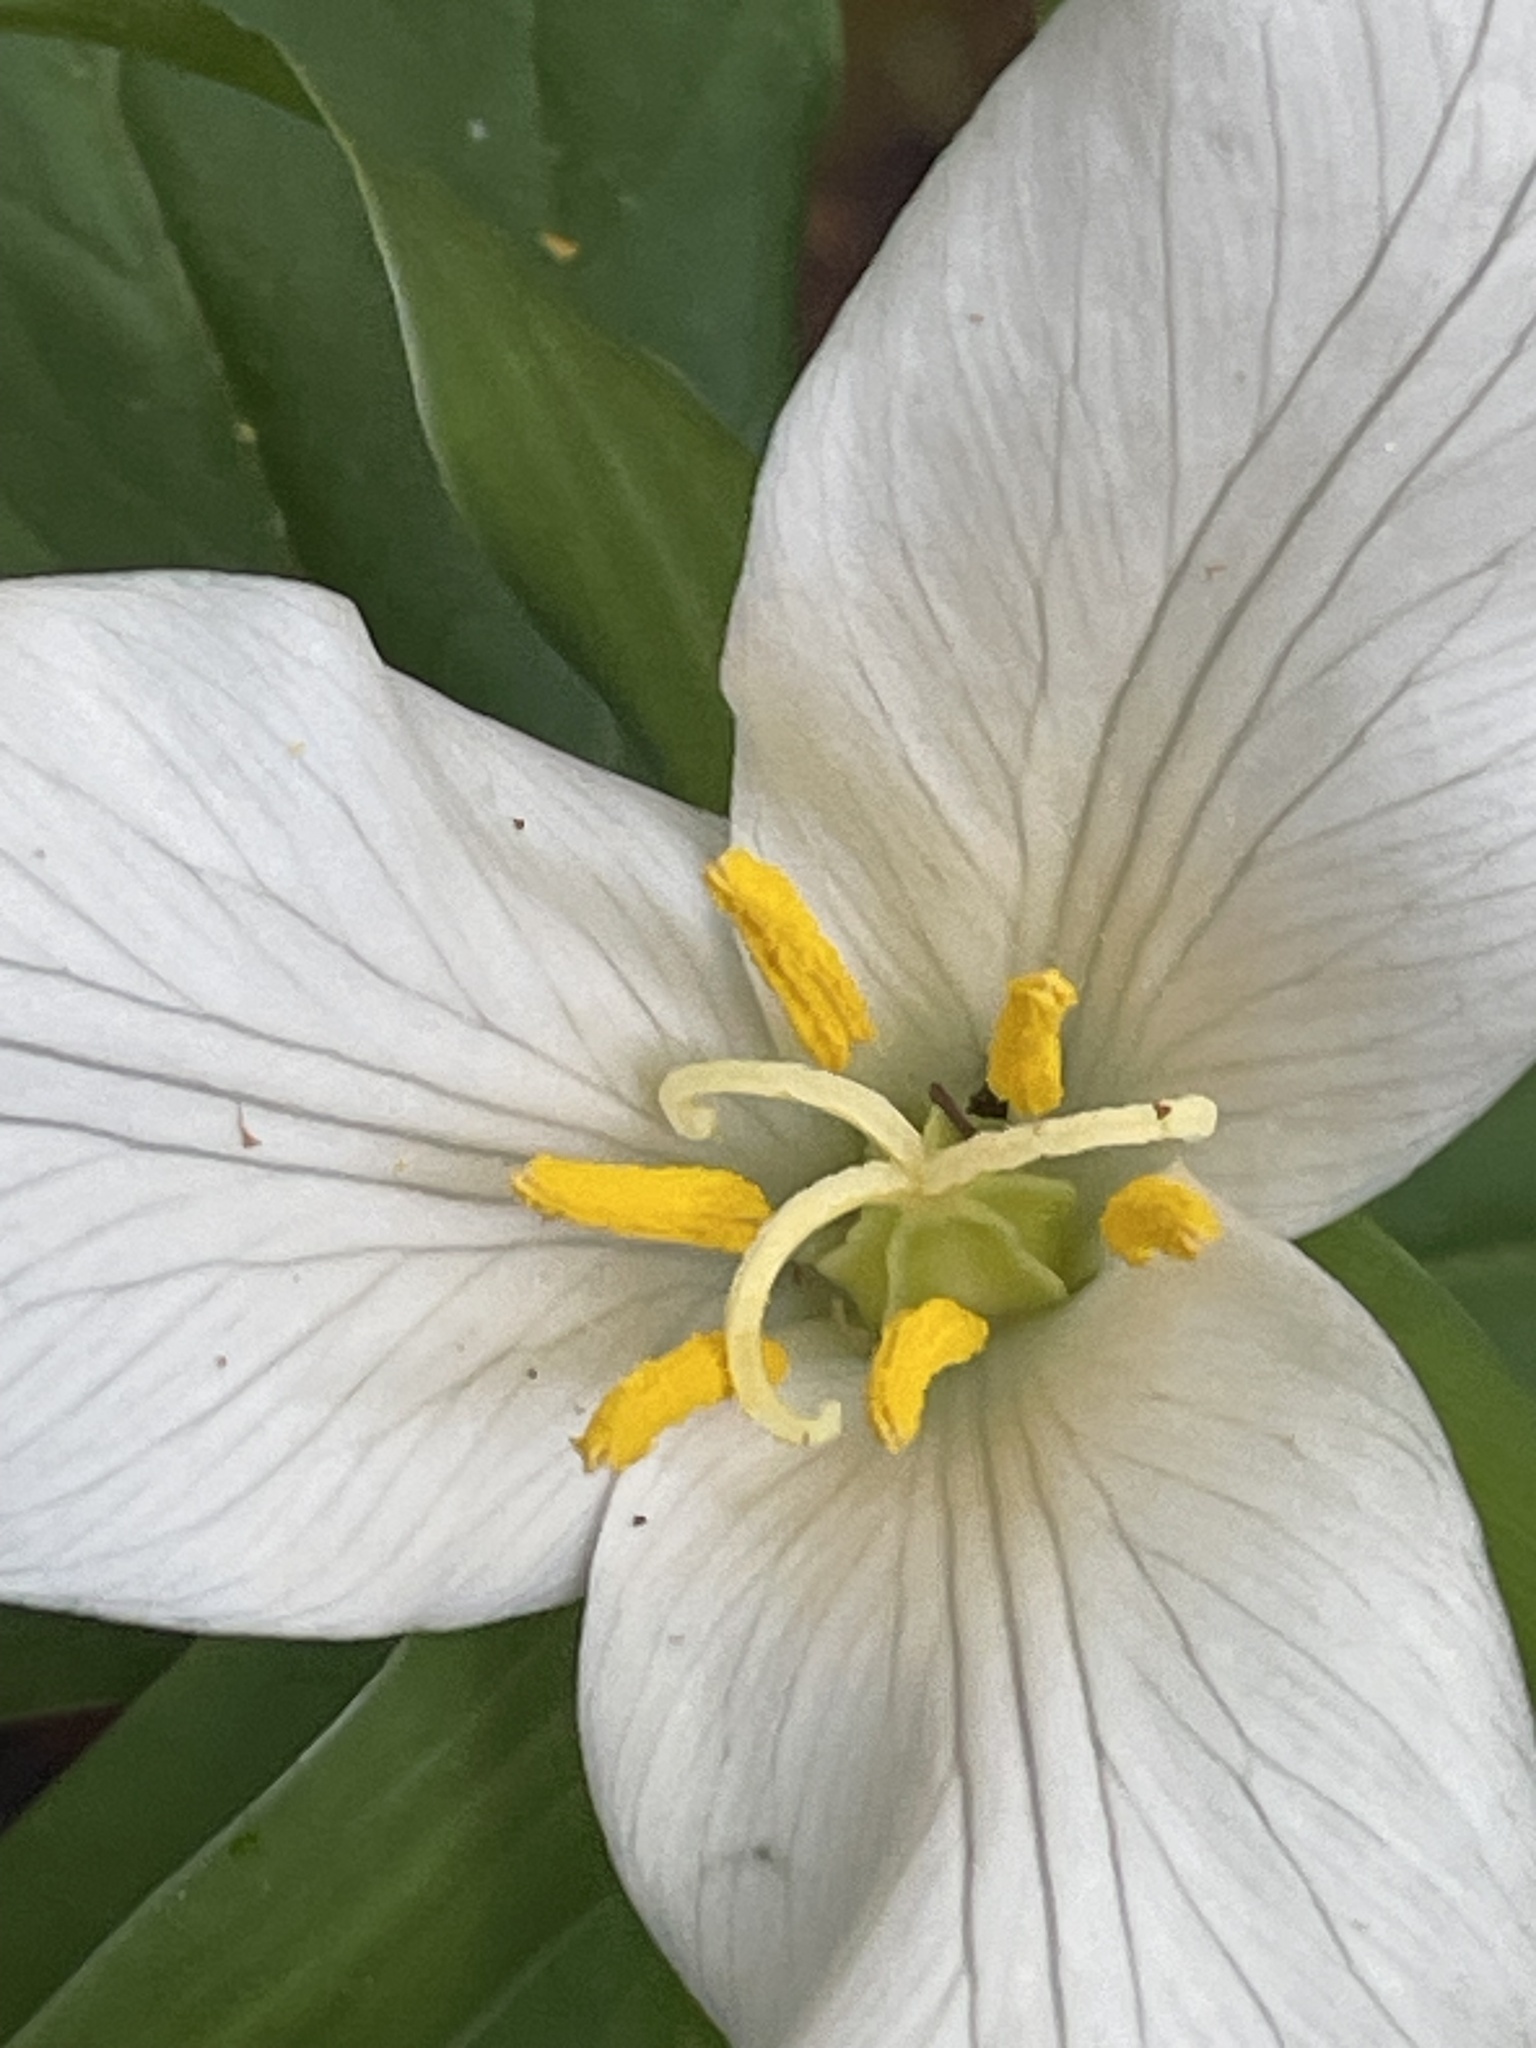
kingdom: Plantae
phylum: Tracheophyta
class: Liliopsida
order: Liliales
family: Melanthiaceae
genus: Trillium
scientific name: Trillium ovatum
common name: Pacific trillium
